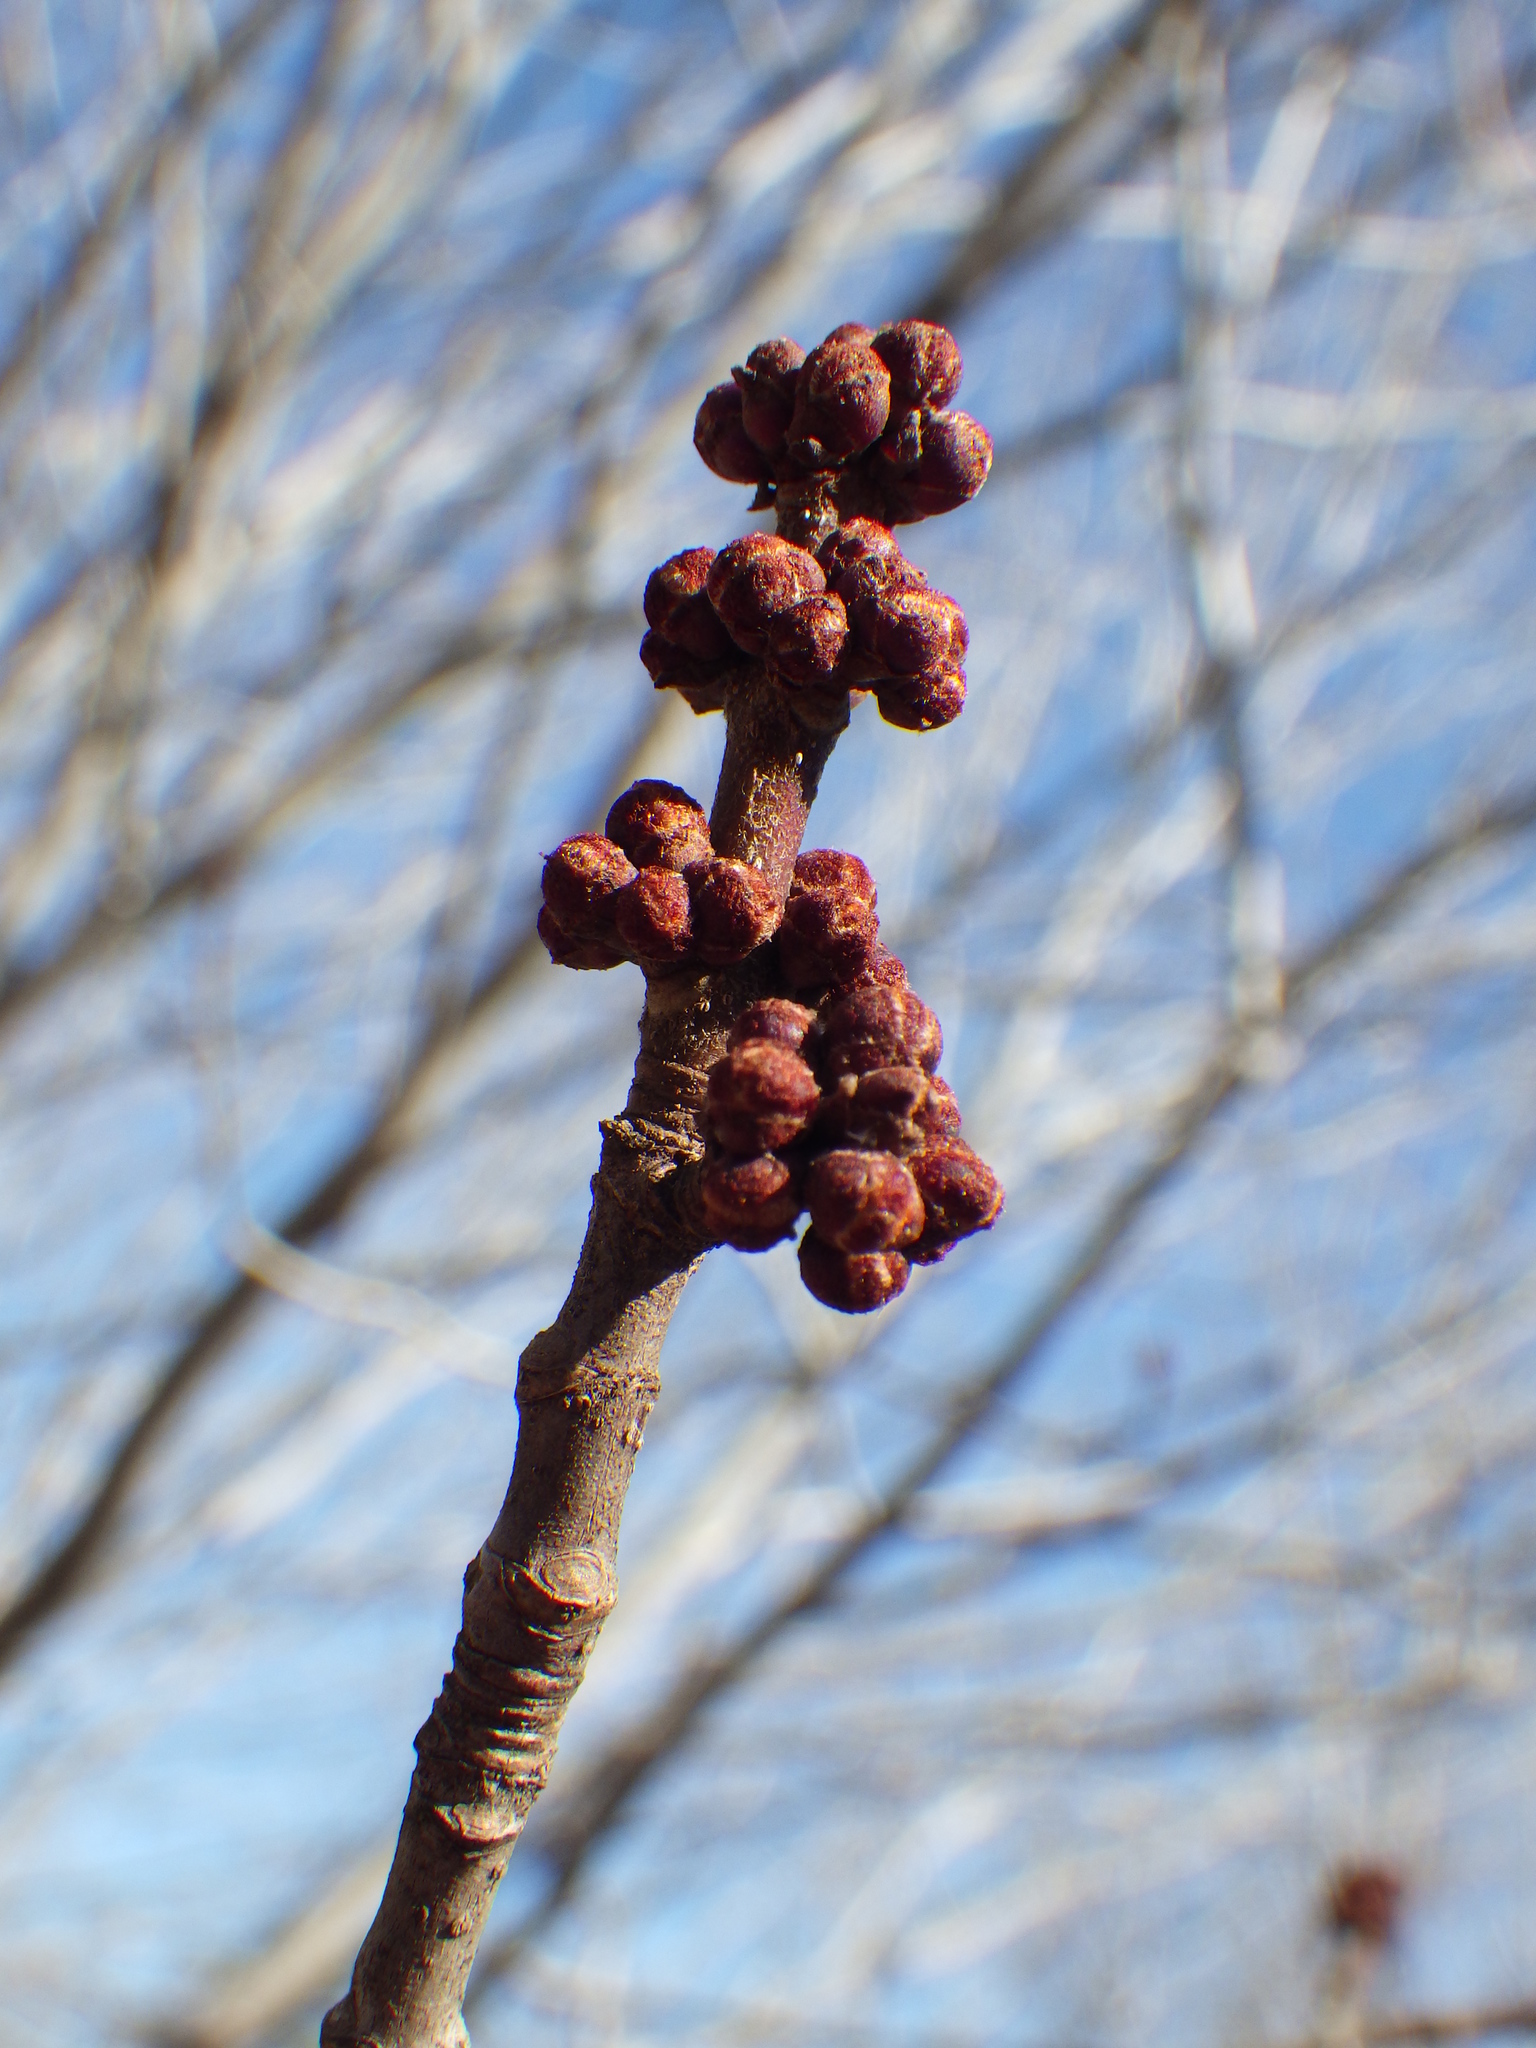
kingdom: Plantae
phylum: Tracheophyta
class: Magnoliopsida
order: Sapindales
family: Sapindaceae
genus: Acer
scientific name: Acer rubrum
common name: Red maple
